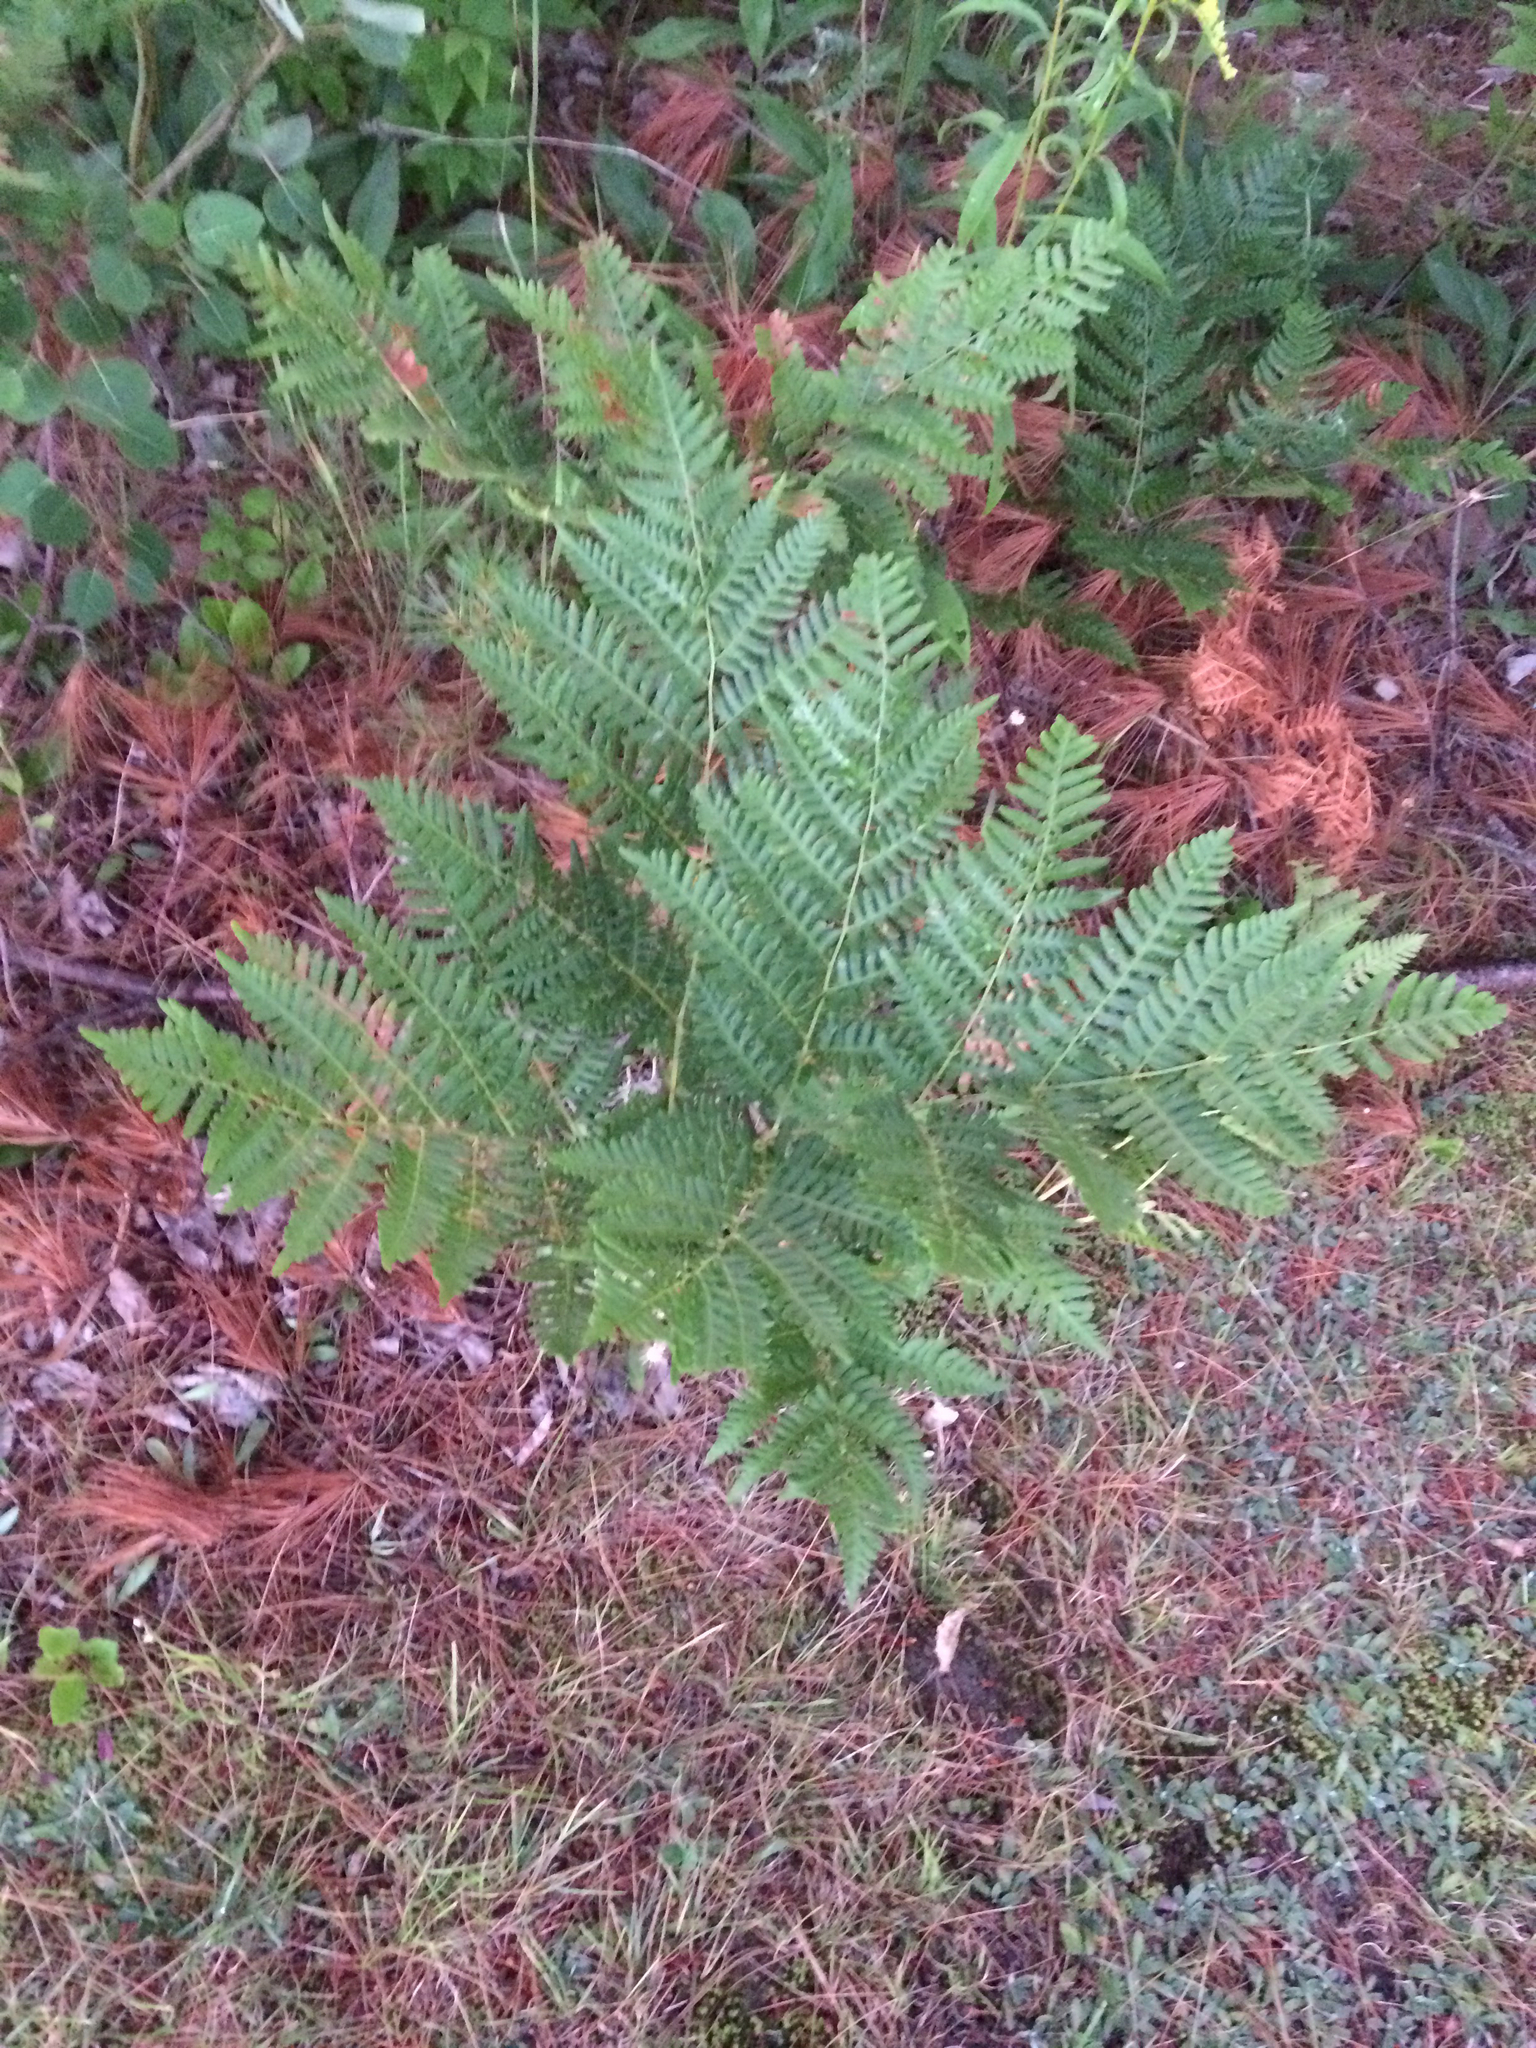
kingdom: Plantae
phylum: Tracheophyta
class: Polypodiopsida
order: Polypodiales
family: Dennstaedtiaceae
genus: Pteridium
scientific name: Pteridium aquilinum
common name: Bracken
